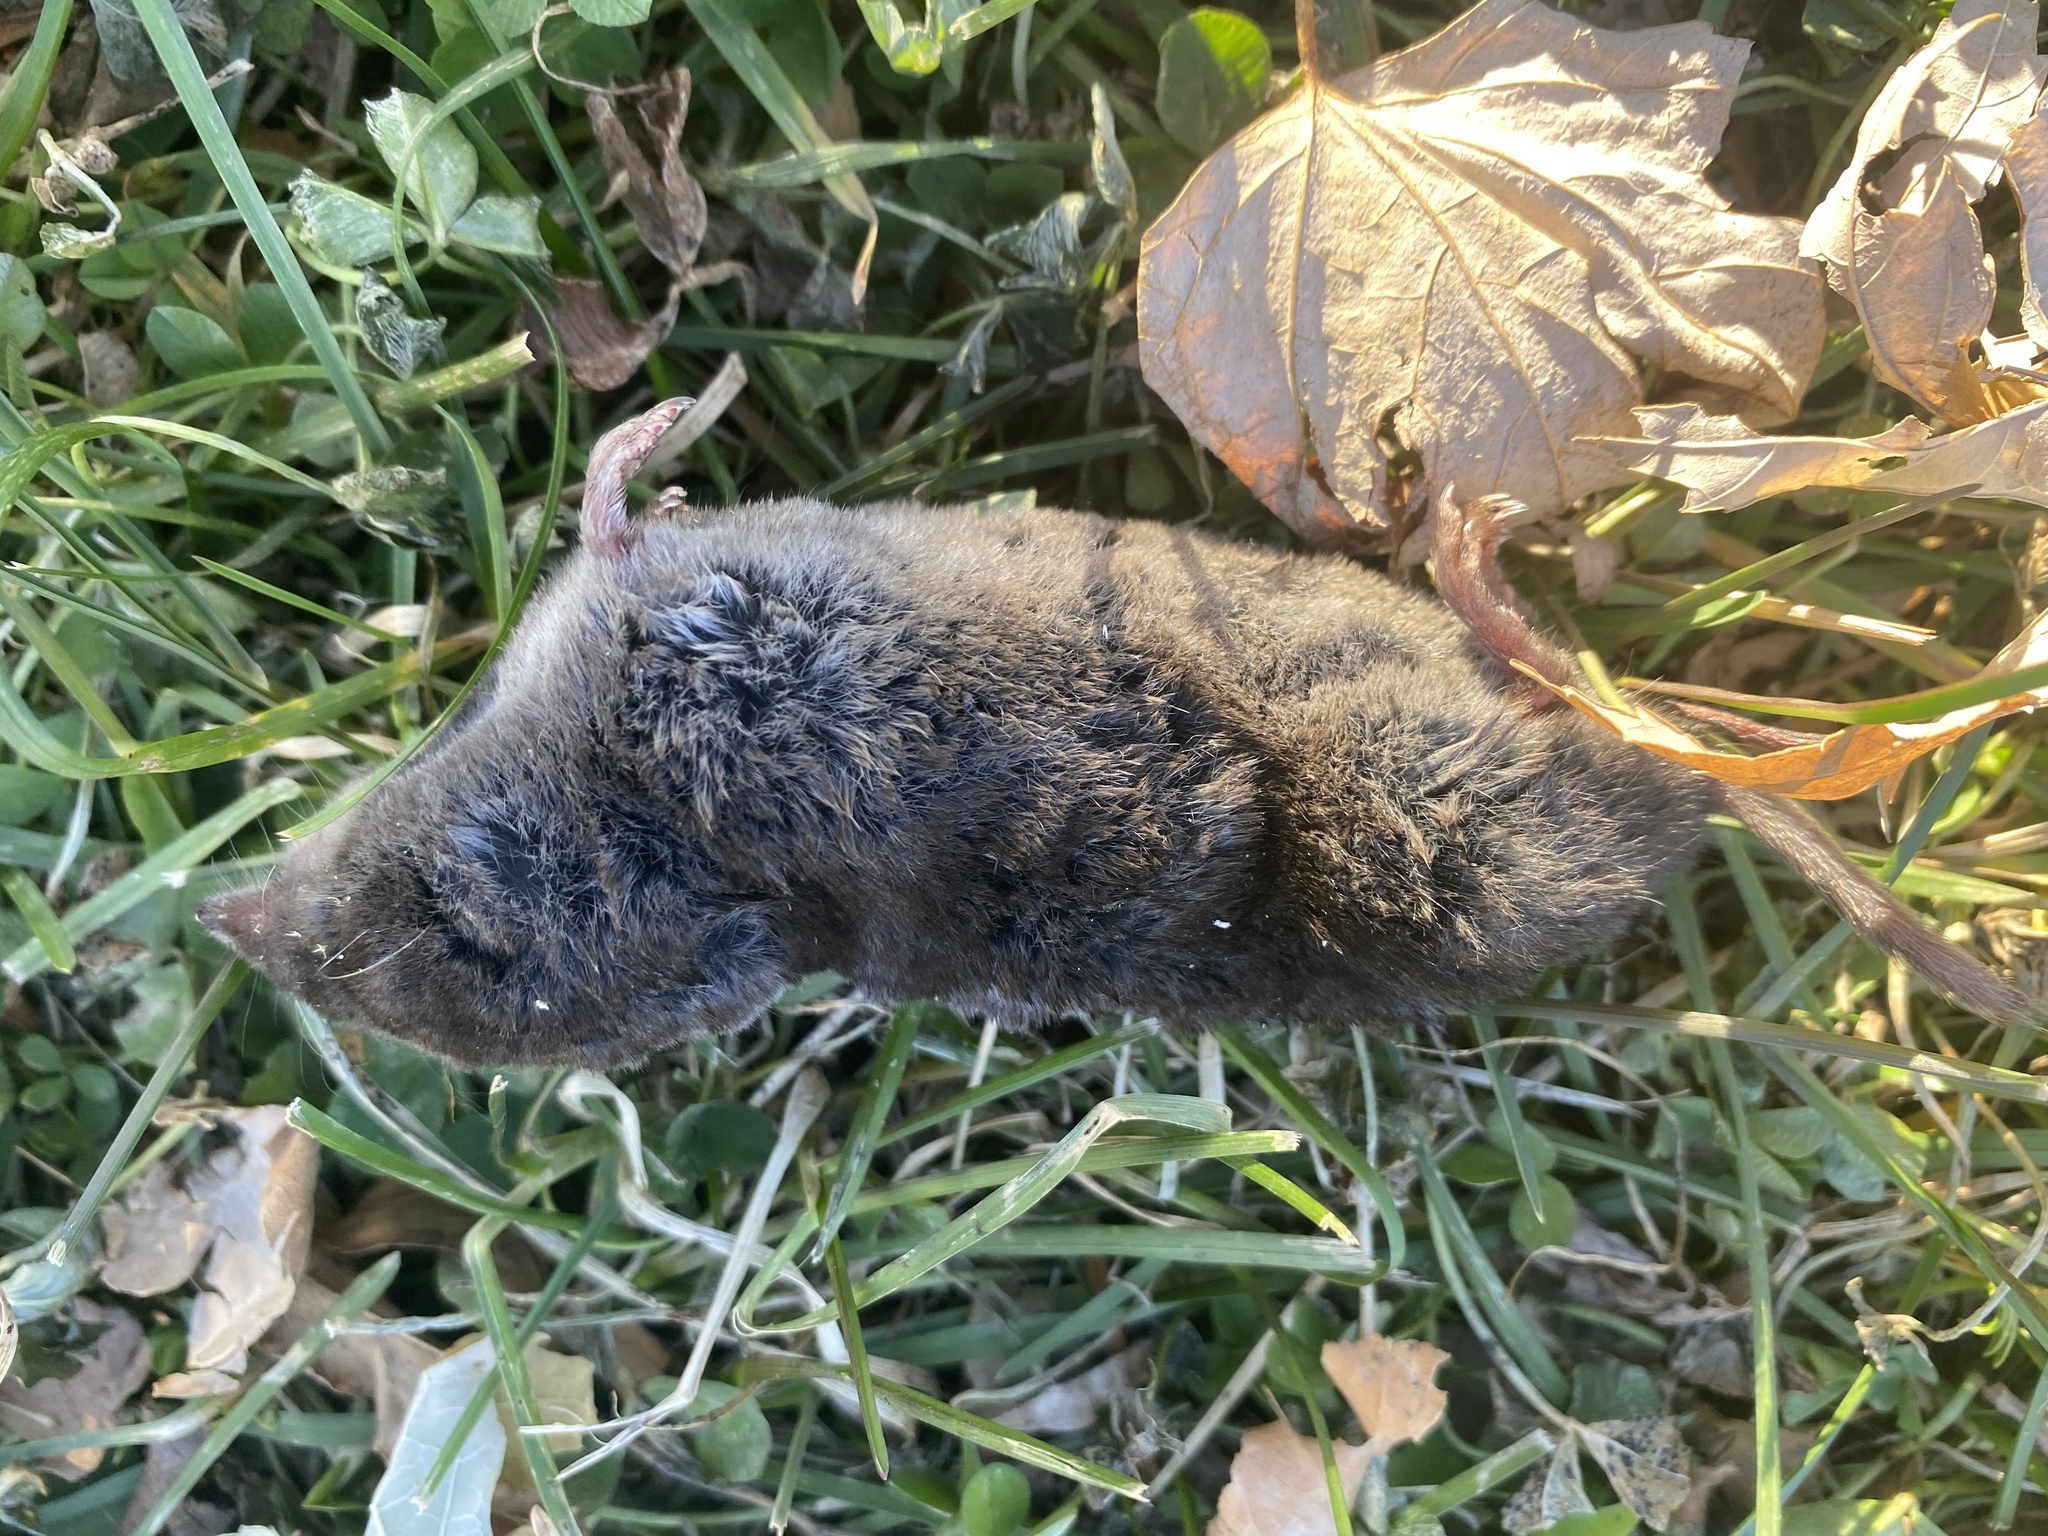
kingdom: Animalia
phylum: Chordata
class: Mammalia
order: Soricomorpha
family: Soricidae
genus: Blarina
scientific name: Blarina brevicauda
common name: Northern short-tailed shrew
